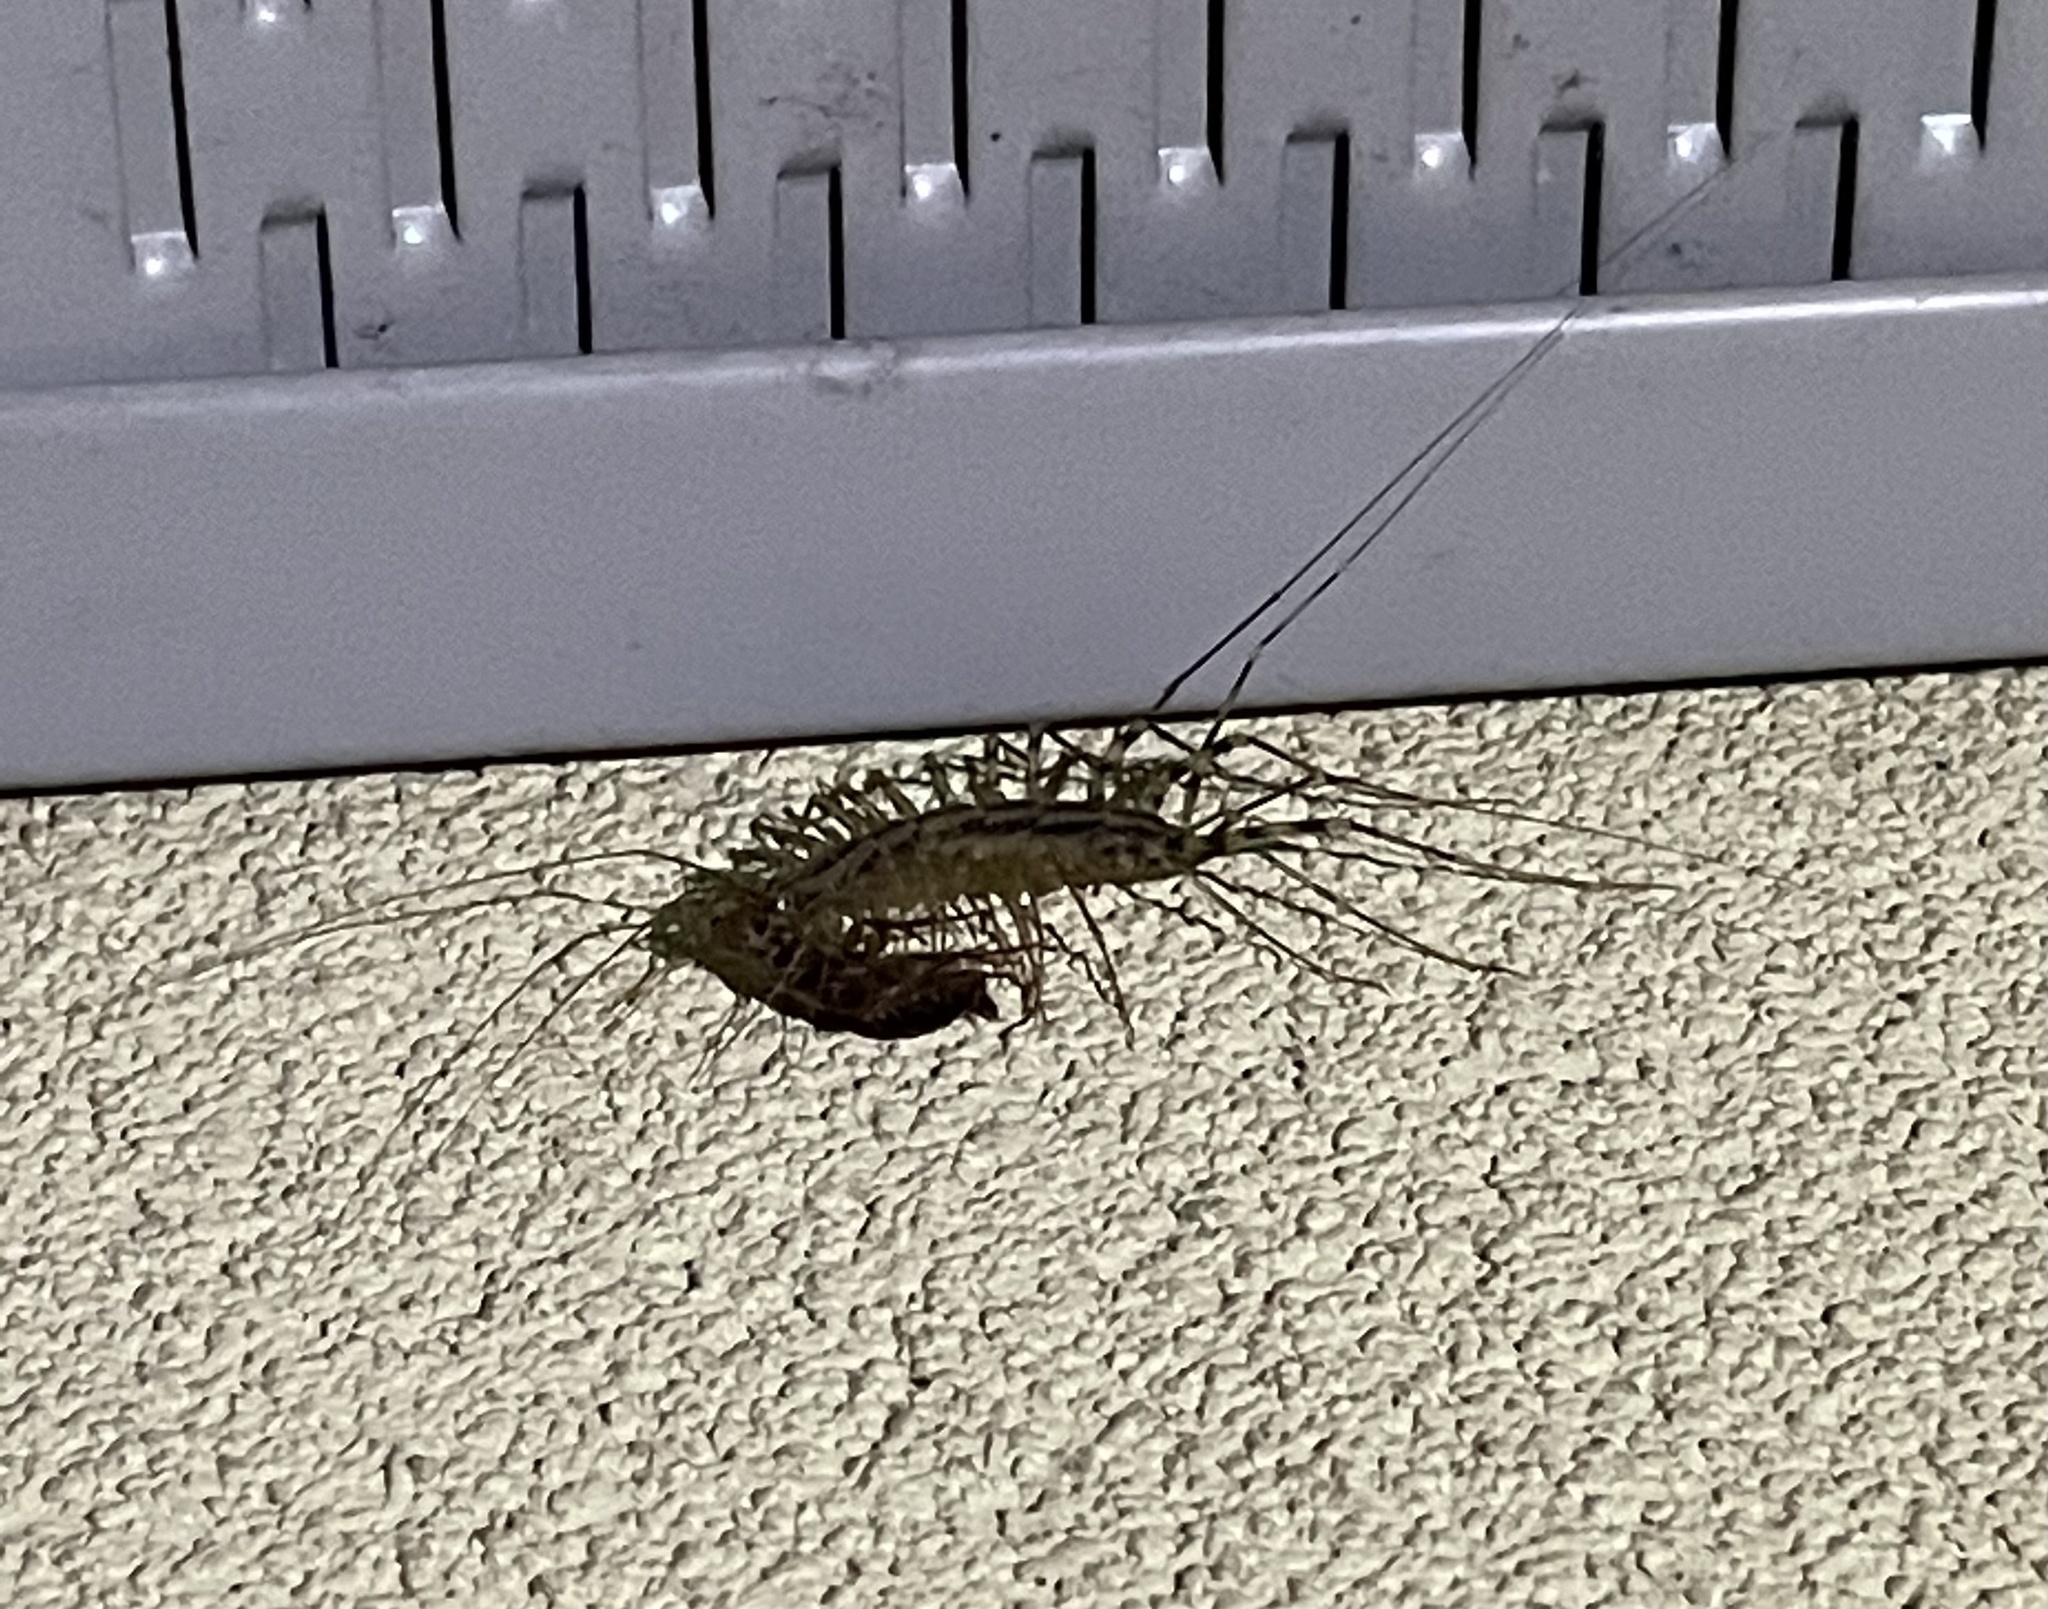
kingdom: Animalia
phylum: Arthropoda
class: Chilopoda
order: Scutigeromorpha
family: Scutigeridae
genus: Scutigera
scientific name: Scutigera coleoptrata
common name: House centipede
